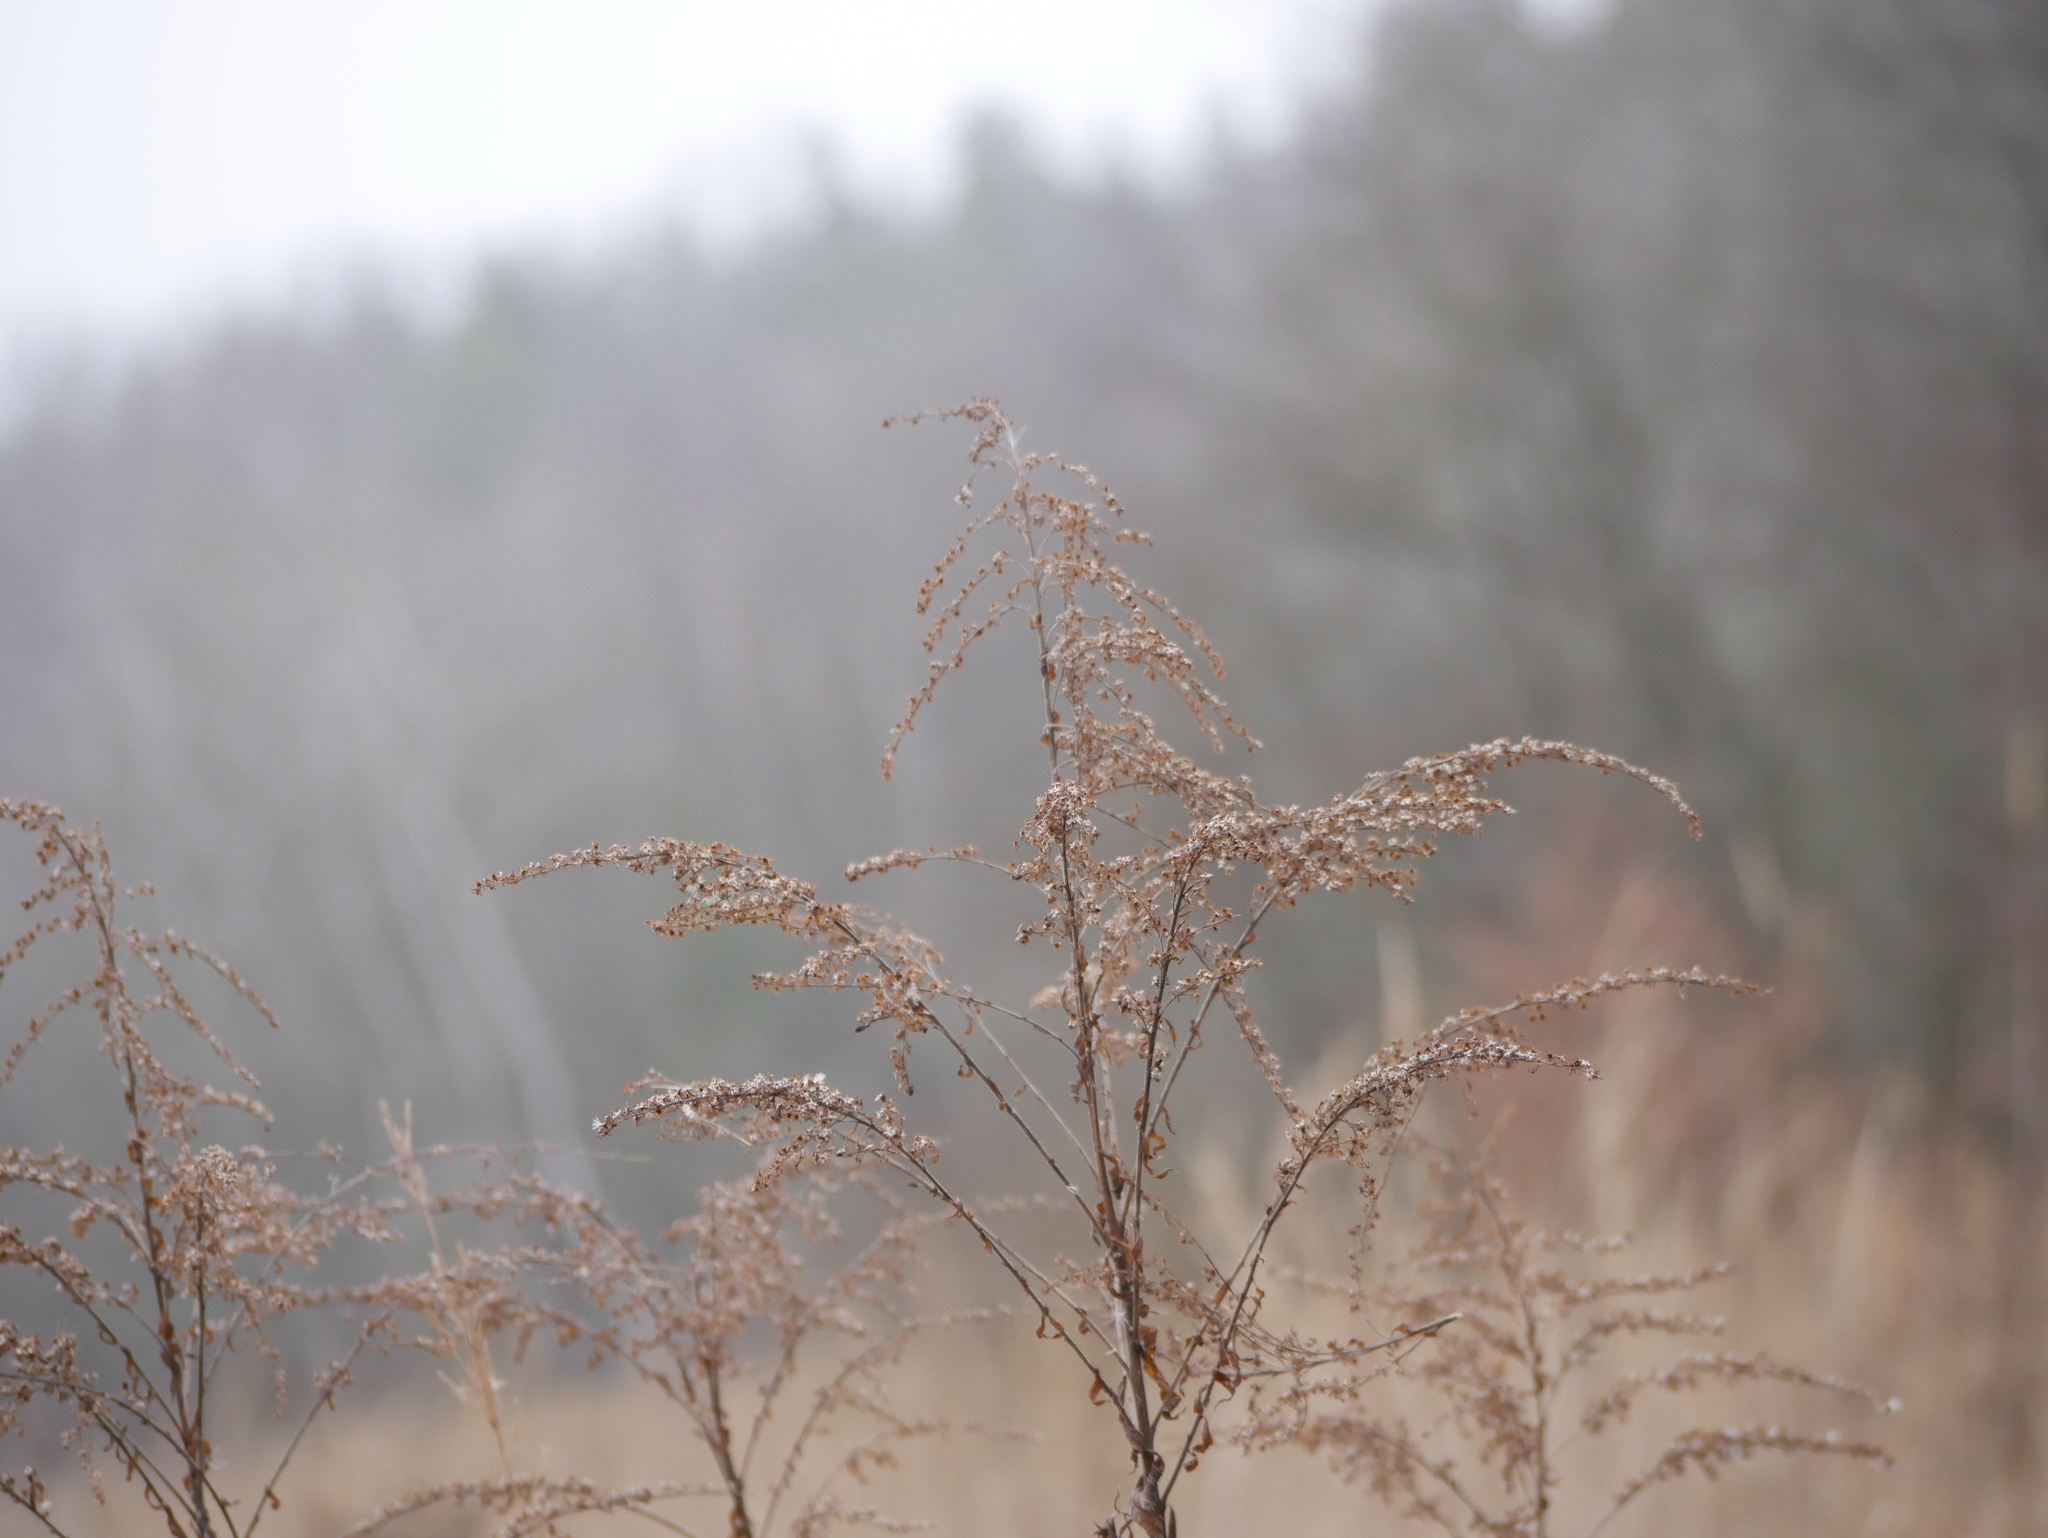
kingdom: Plantae
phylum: Tracheophyta
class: Magnoliopsida
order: Asterales
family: Asteraceae
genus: Solidago
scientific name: Solidago canadensis
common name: Canada goldenrod
